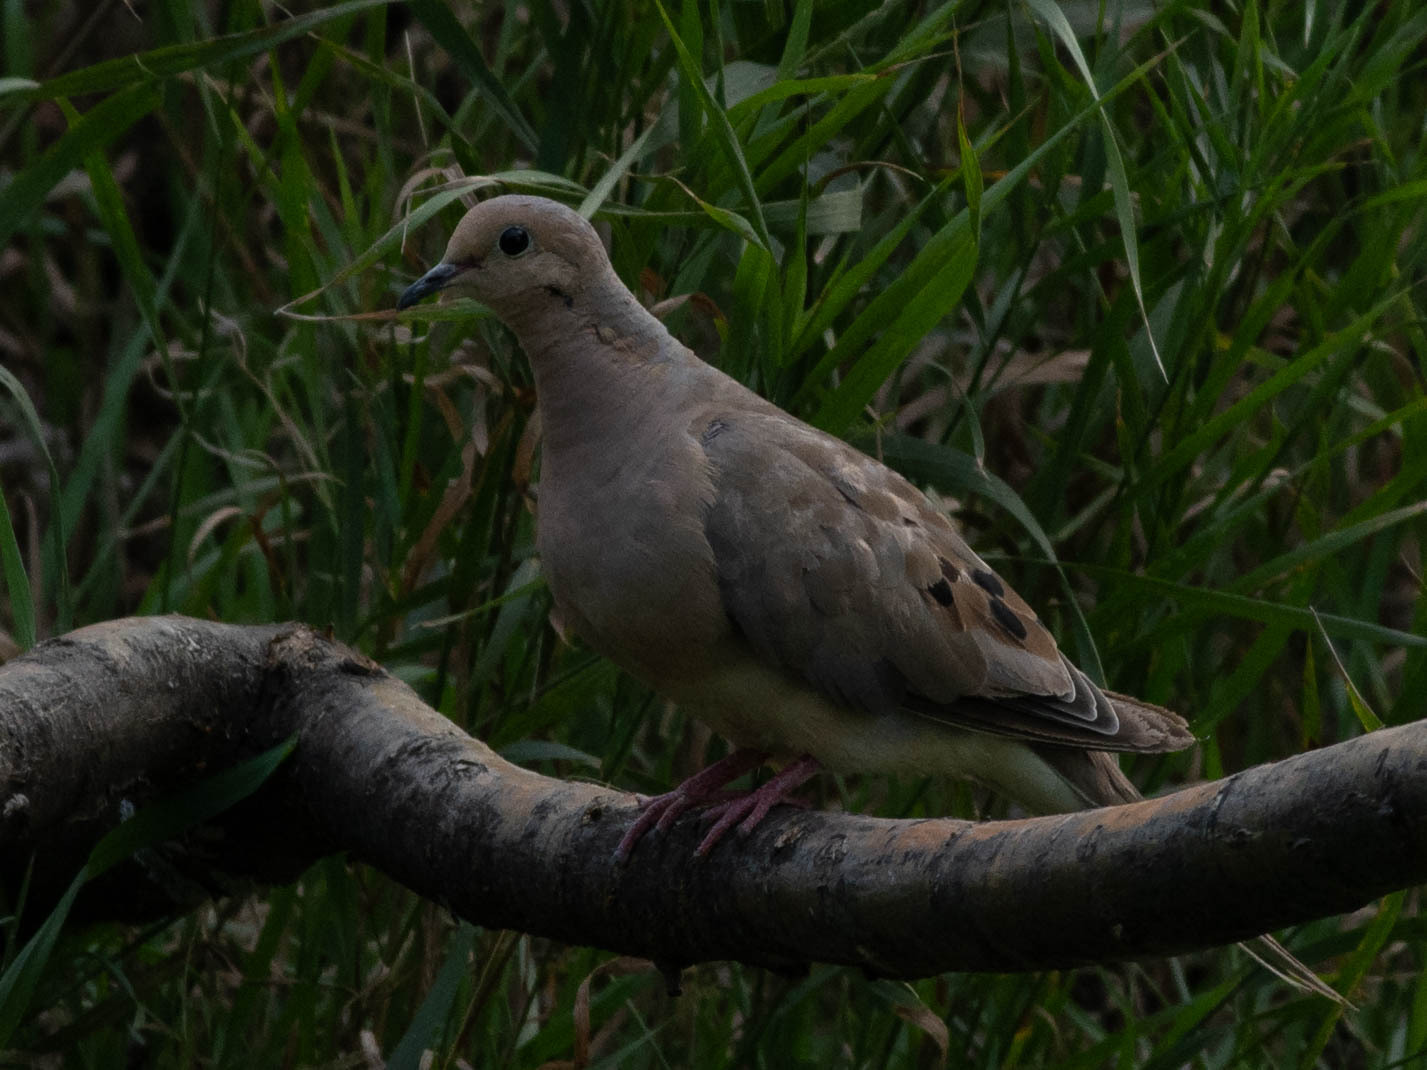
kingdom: Animalia
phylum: Chordata
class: Aves
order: Columbiformes
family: Columbidae
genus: Zenaida
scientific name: Zenaida macroura
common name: Mourning dove
